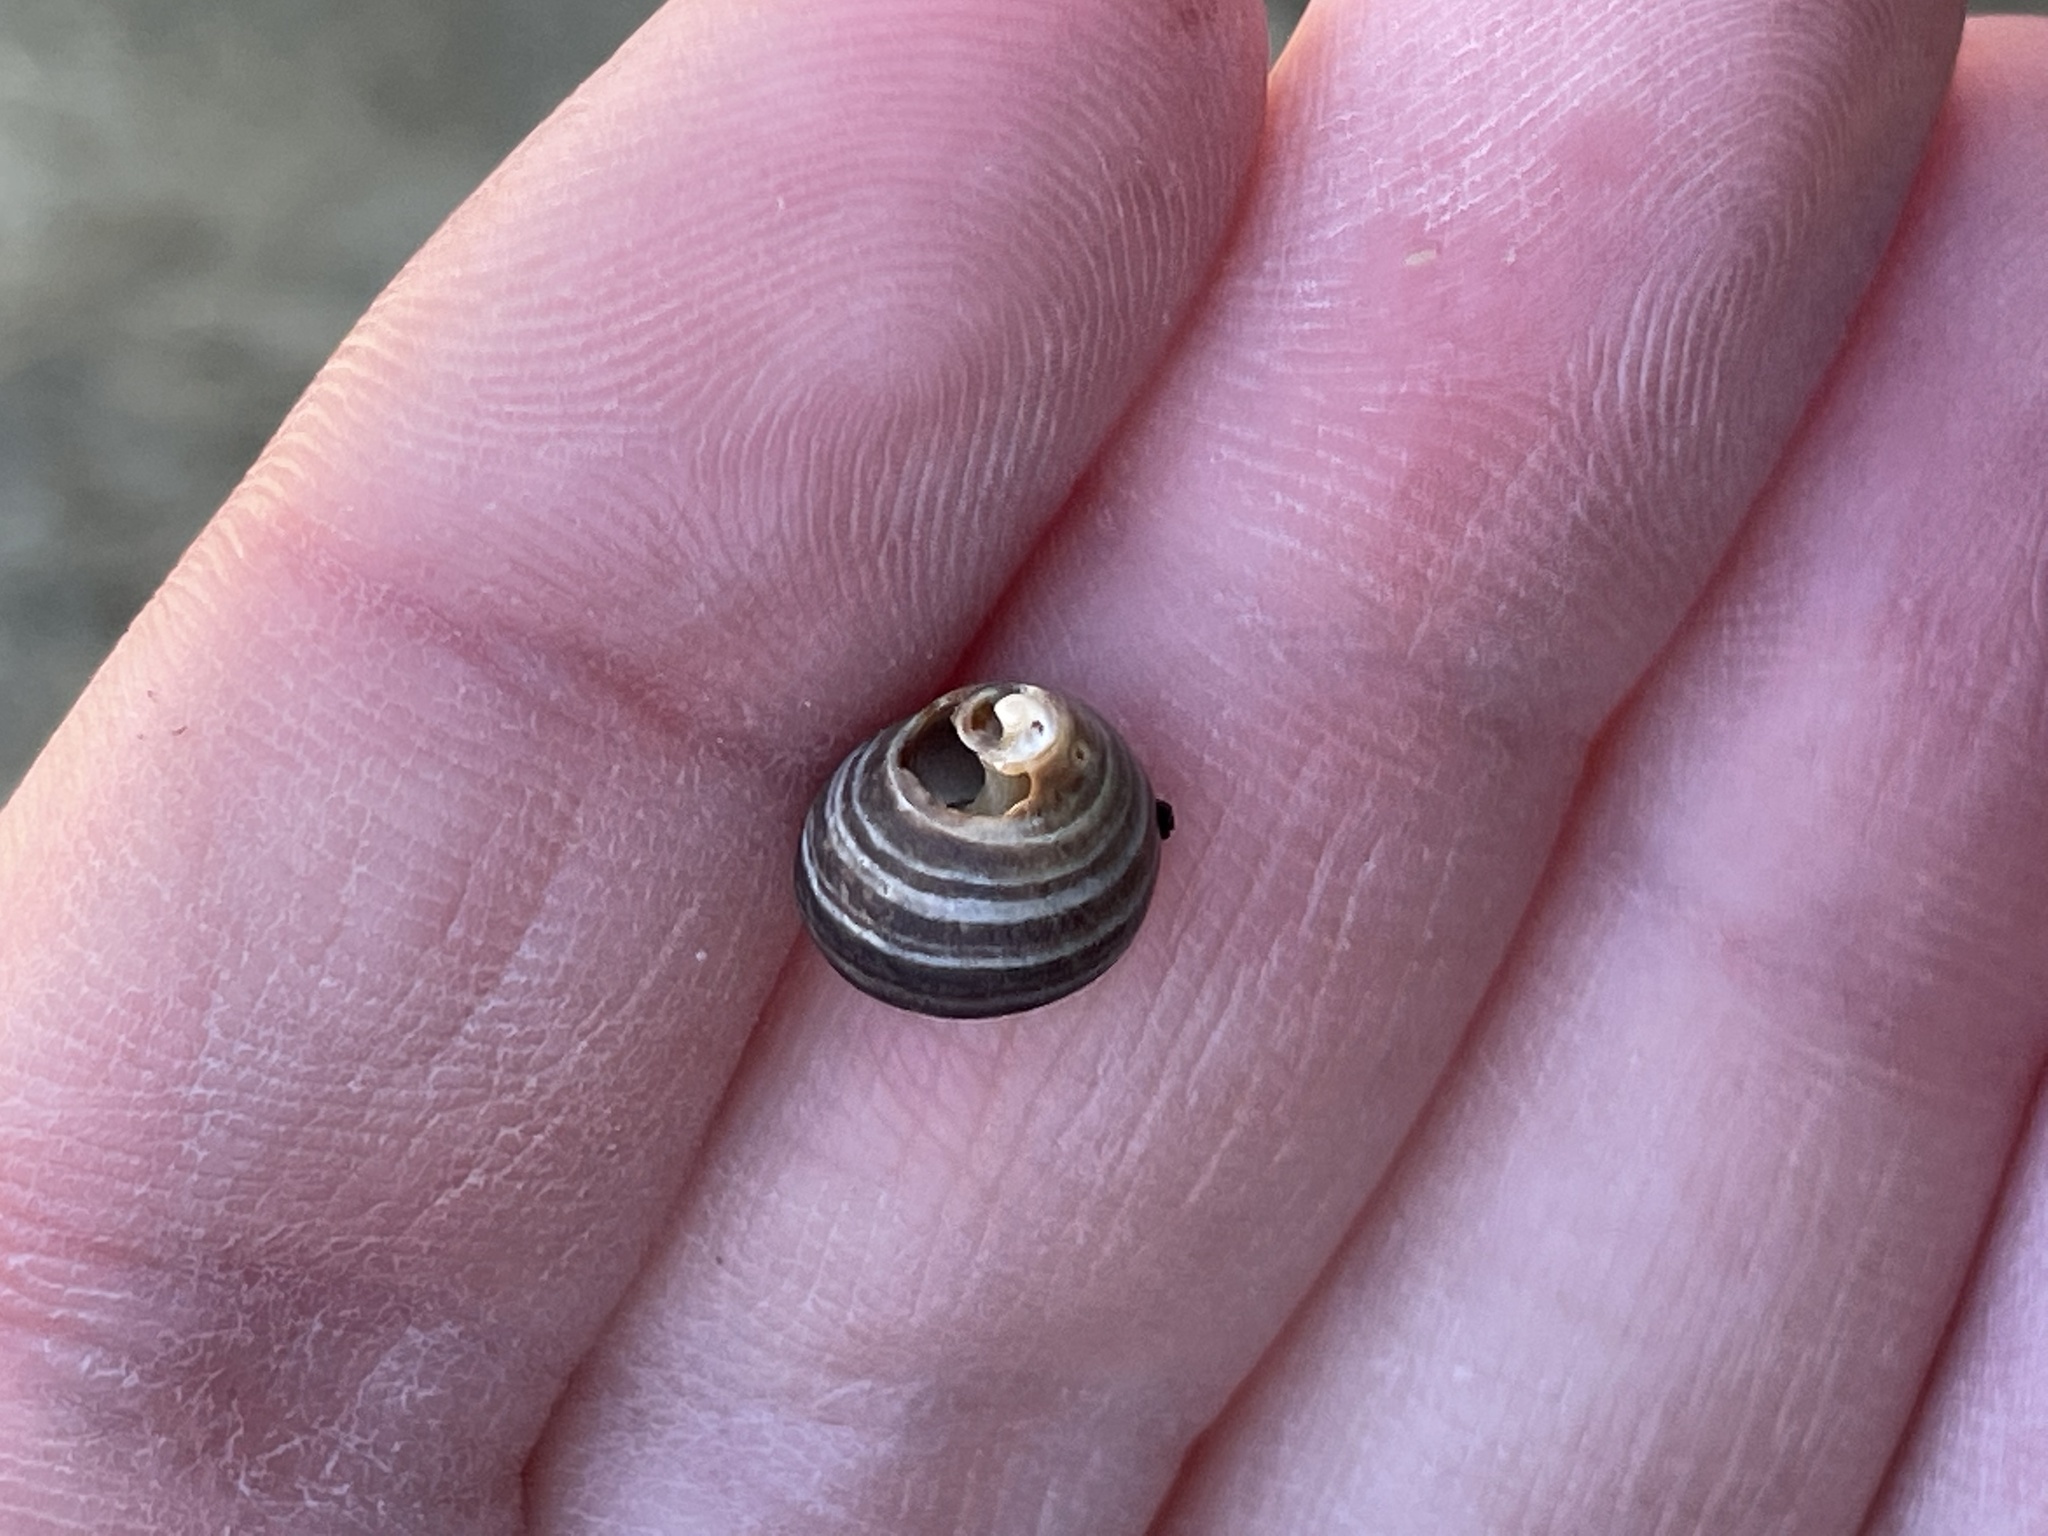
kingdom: Animalia
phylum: Mollusca
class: Gastropoda
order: Littorinimorpha
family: Littorinidae
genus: Littorina
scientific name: Littorina littorea
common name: Common periwinkle
